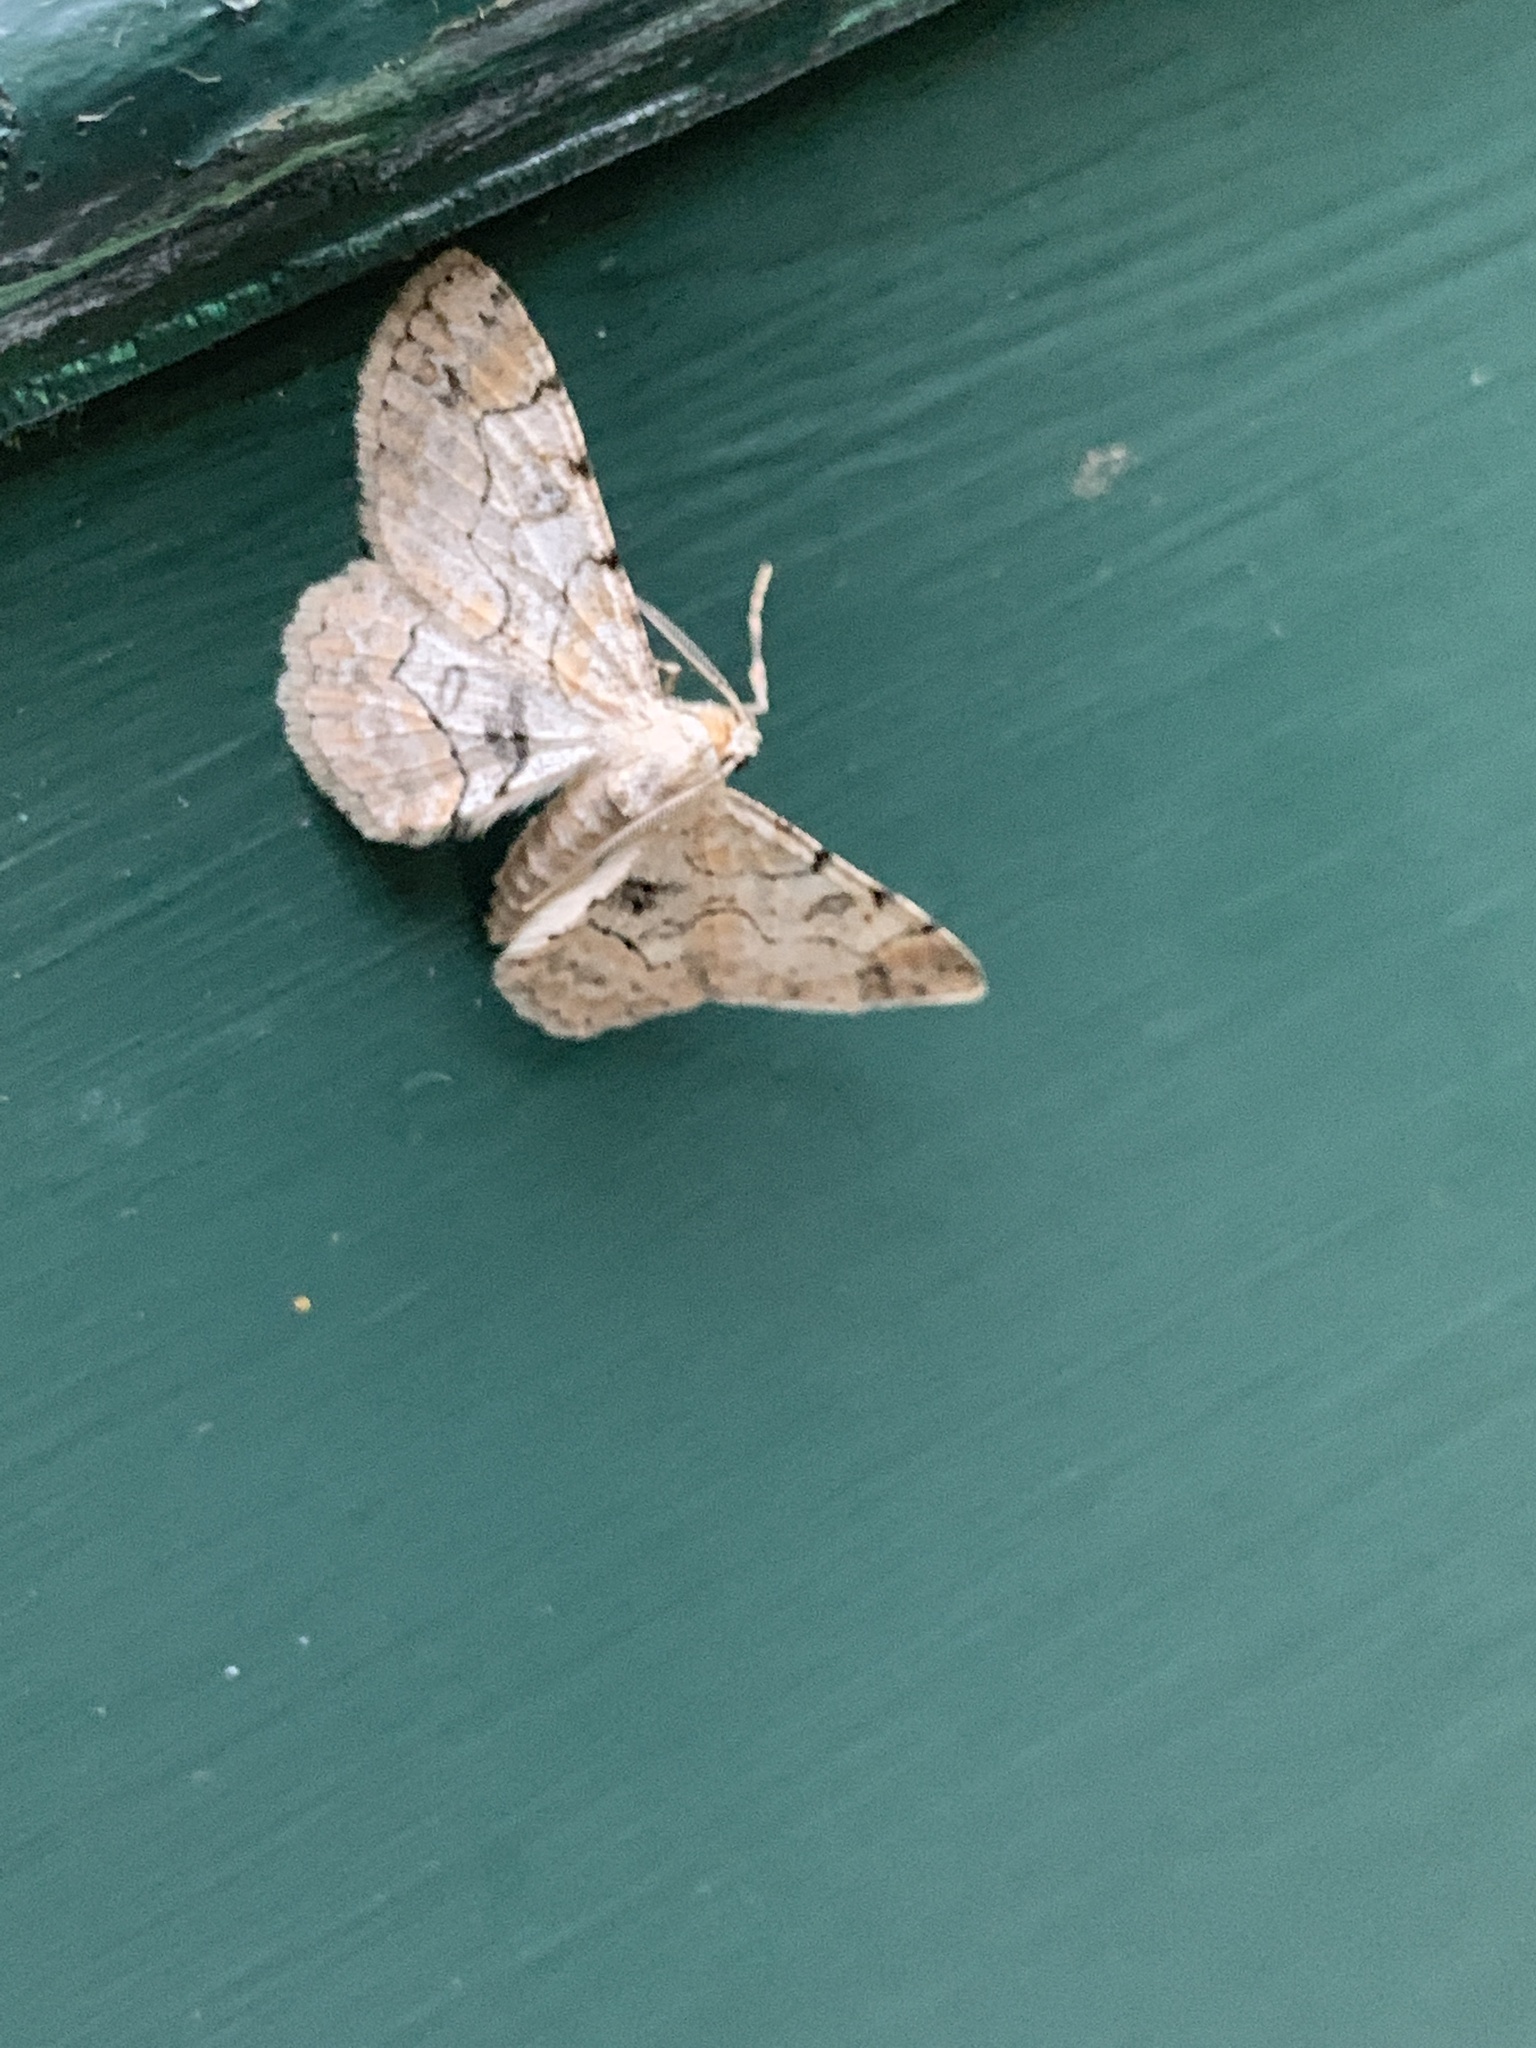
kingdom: Animalia
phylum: Arthropoda
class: Insecta
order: Lepidoptera
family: Geometridae
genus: Iridopsis
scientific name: Iridopsis larvaria
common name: Bent-line gray
